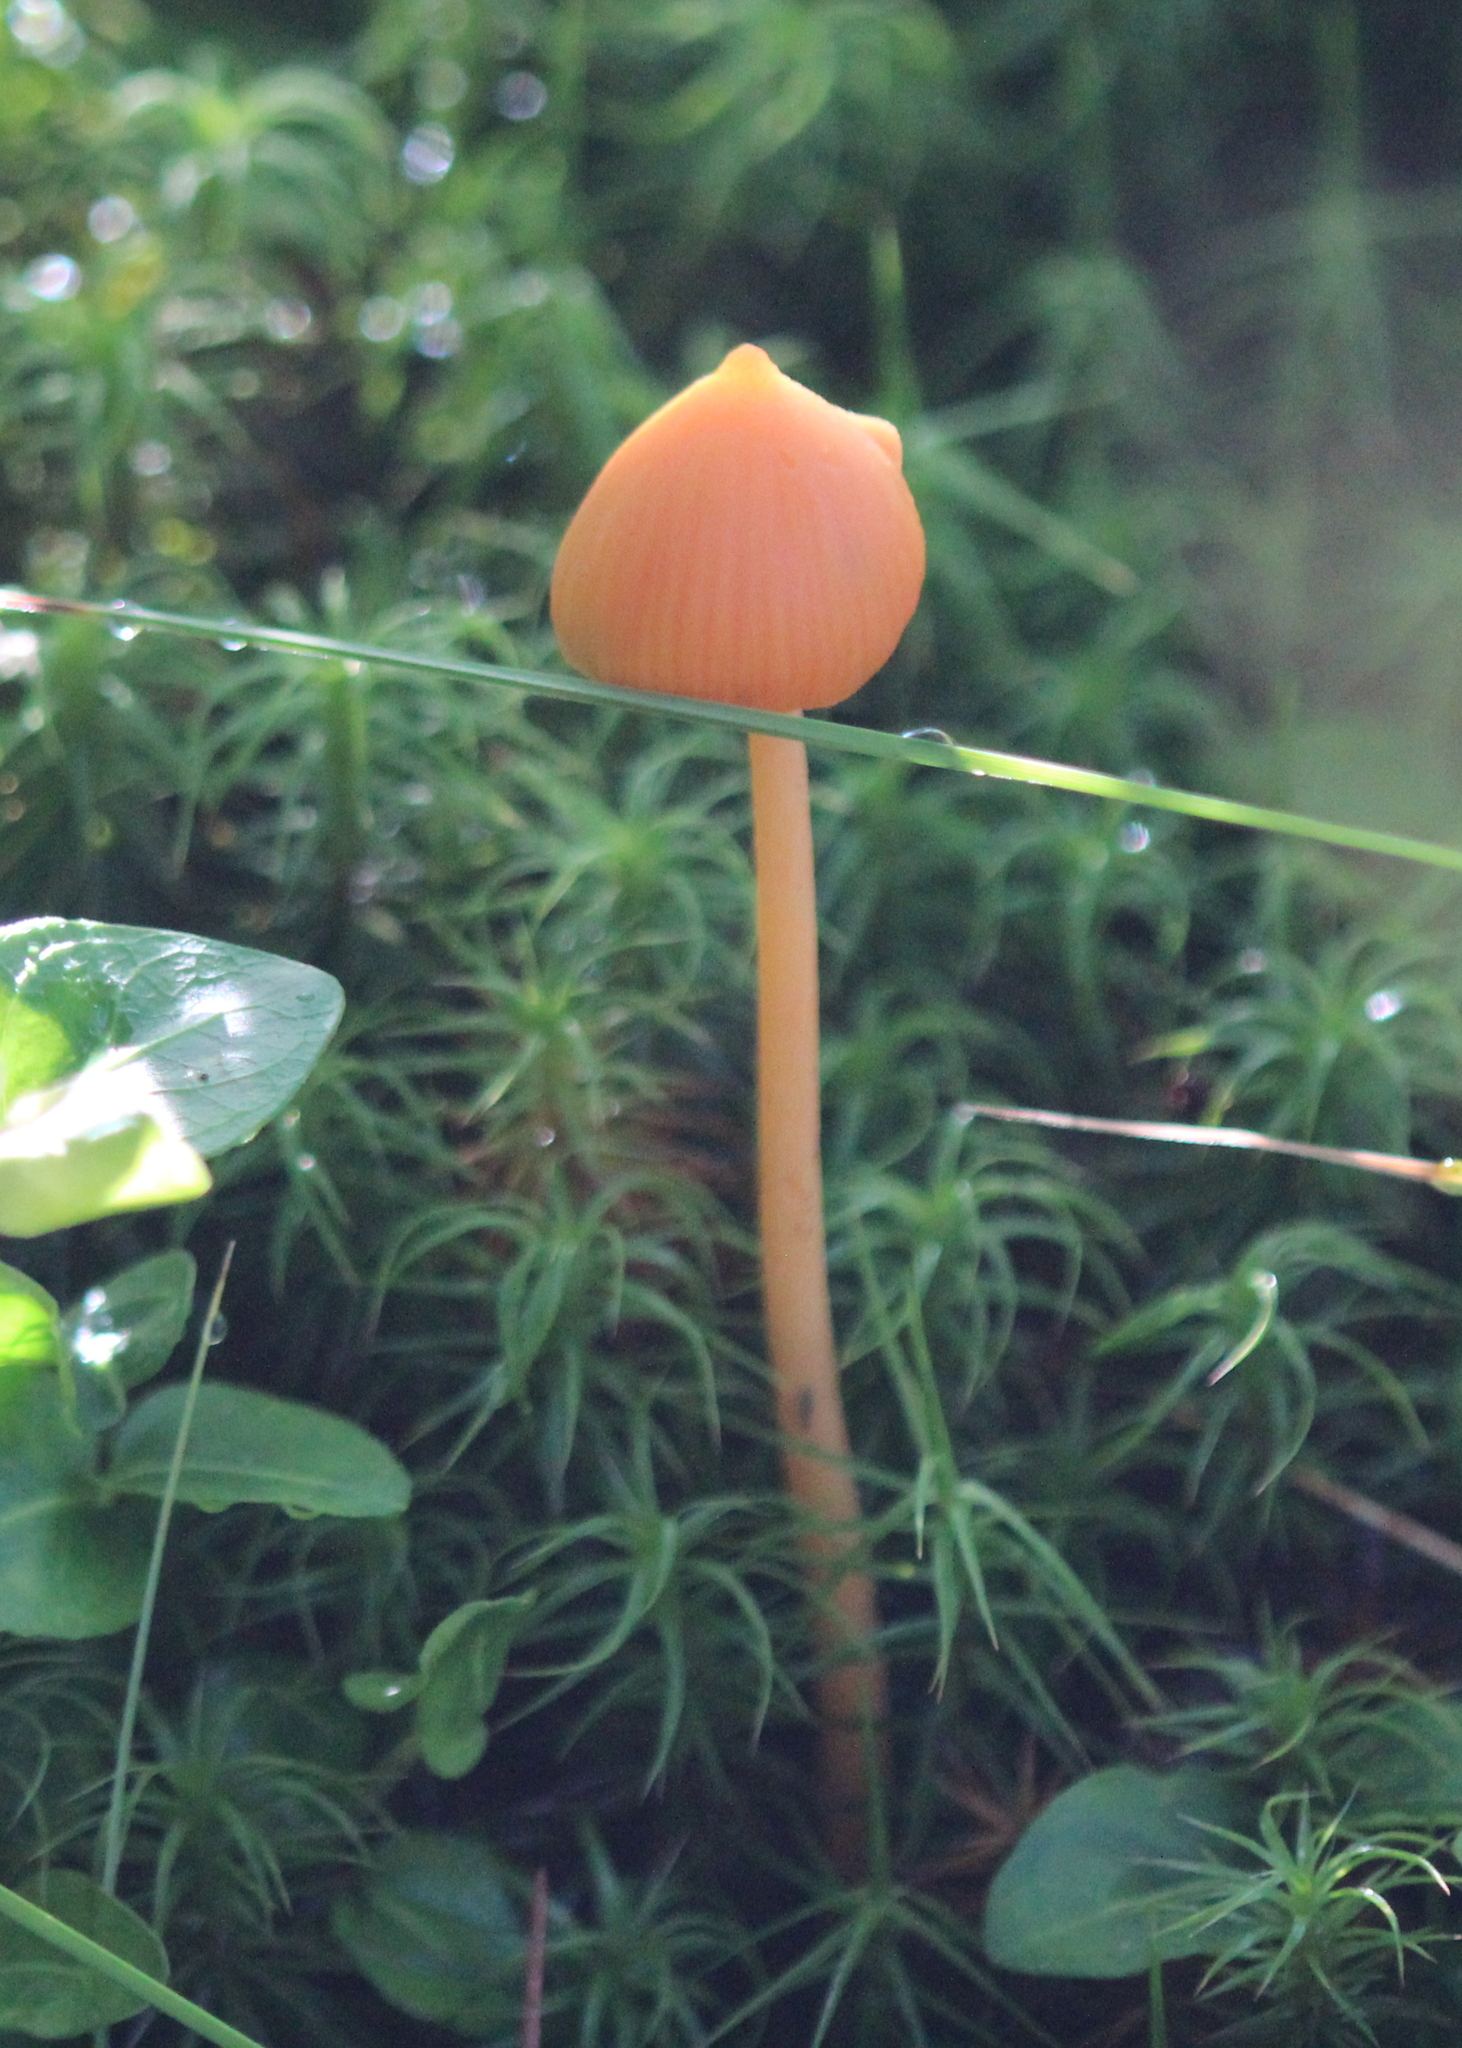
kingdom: Fungi
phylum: Basidiomycota
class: Agaricomycetes
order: Agaricales
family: Entolomataceae
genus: Entoloma
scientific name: Entoloma quadratum
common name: Salmon pinkgill
